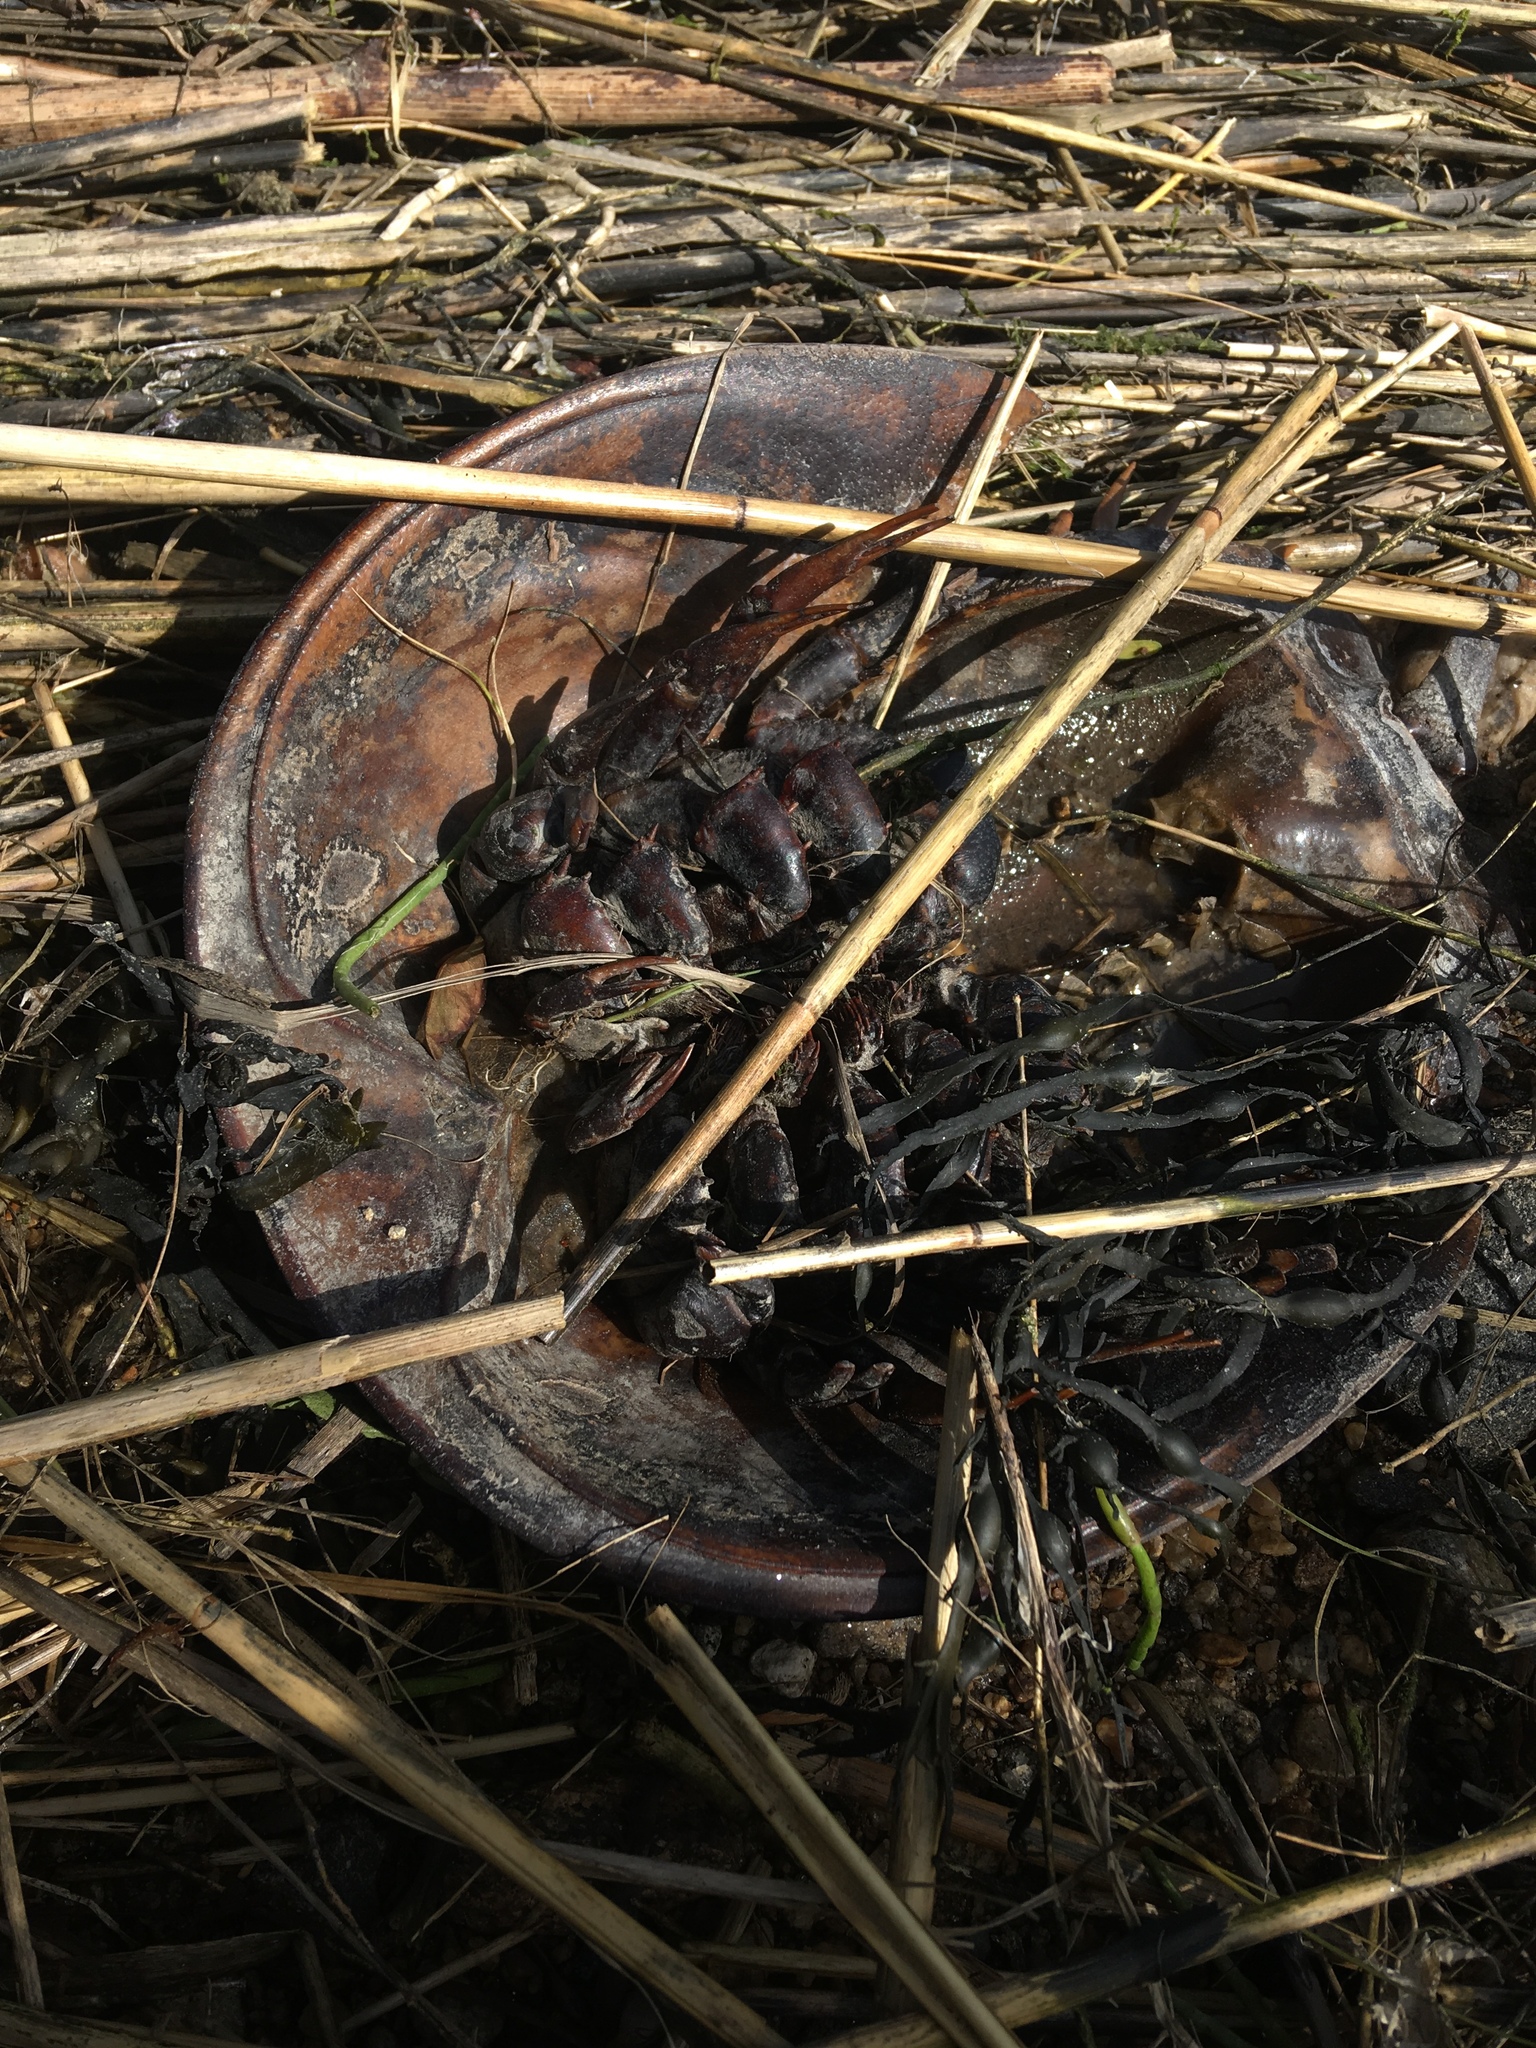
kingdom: Animalia
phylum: Arthropoda
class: Merostomata
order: Xiphosurida
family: Limulidae
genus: Limulus
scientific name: Limulus polyphemus
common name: Horseshoe crab
